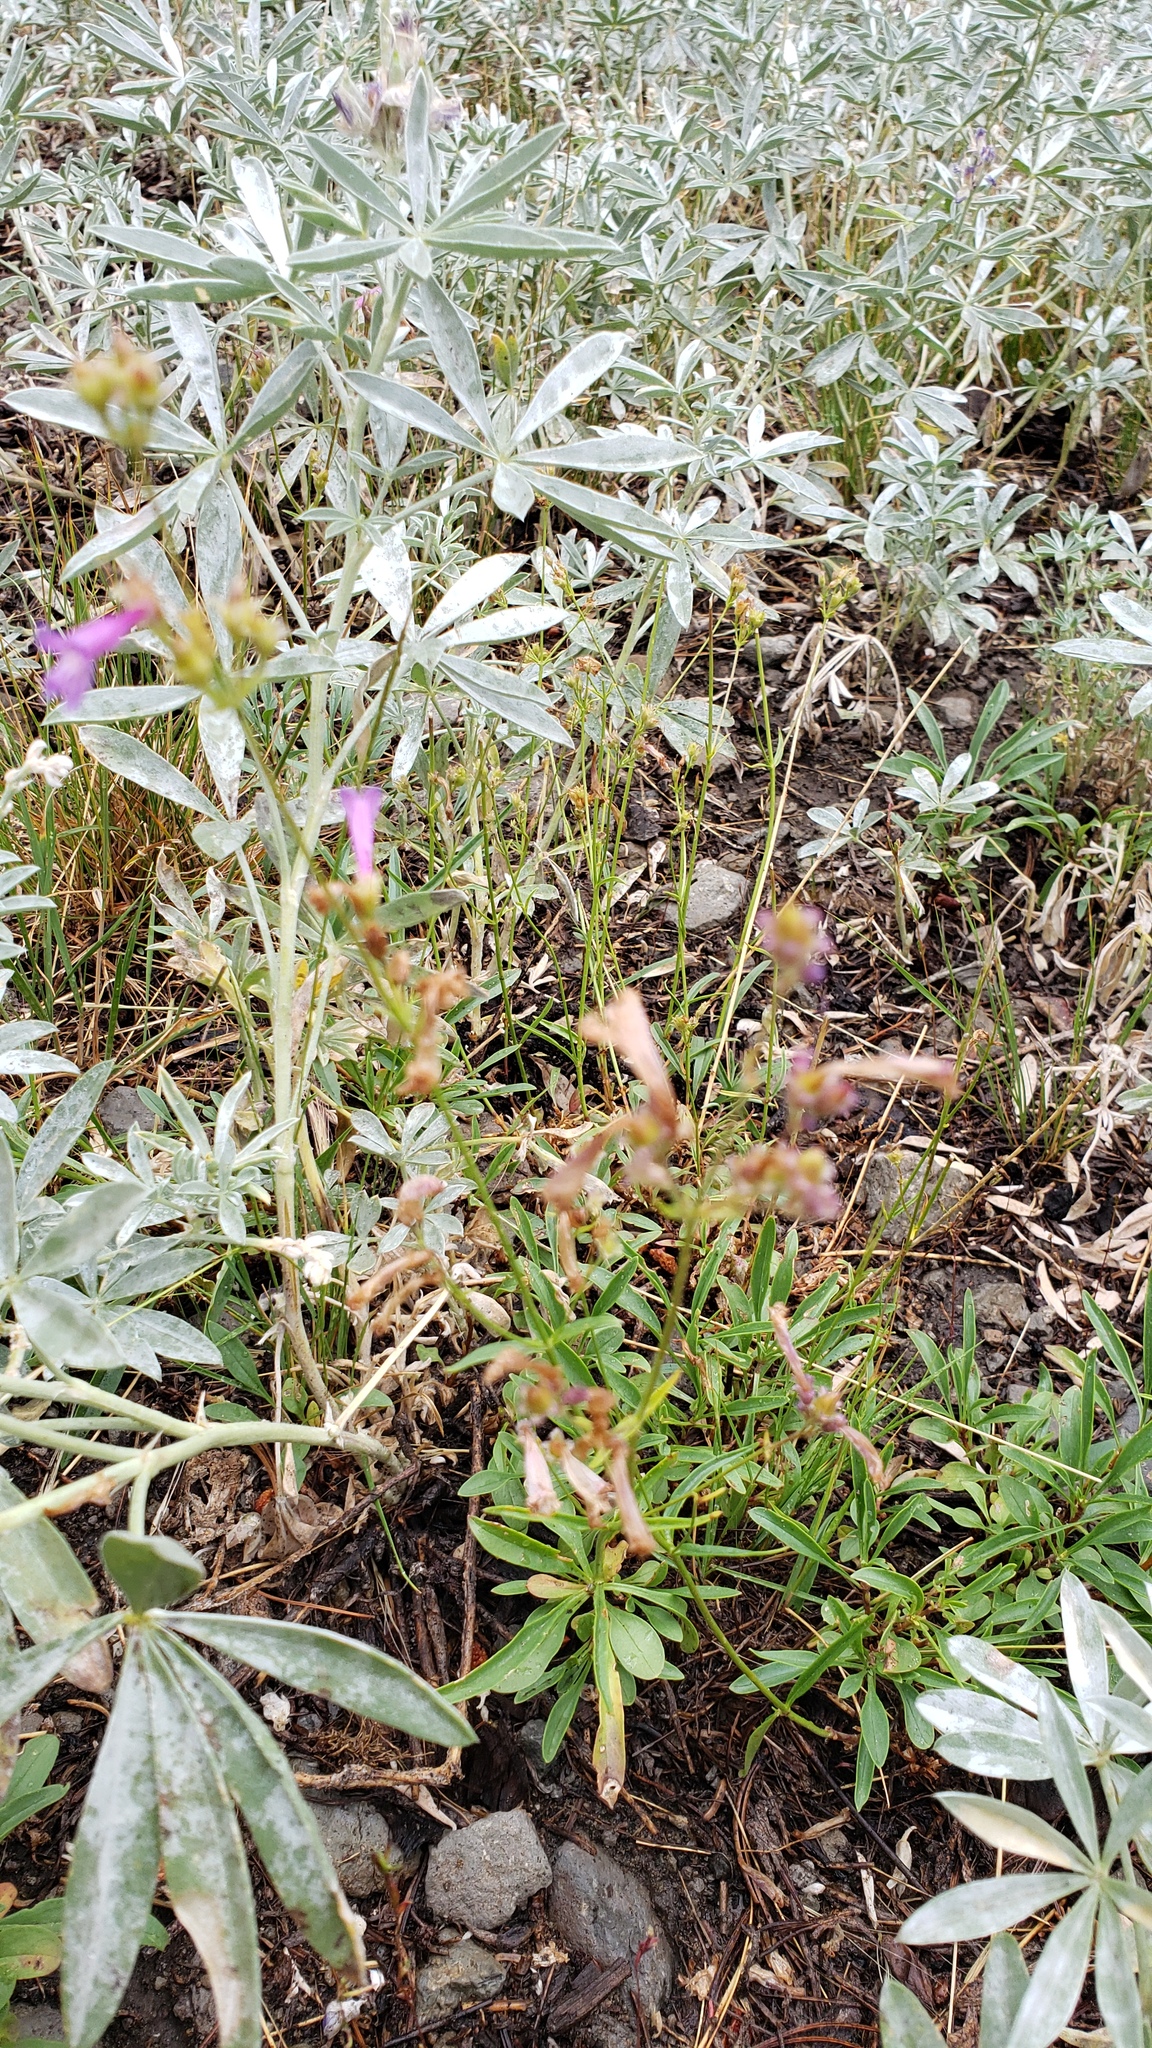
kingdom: Plantae
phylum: Tracheophyta
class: Magnoliopsida
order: Lamiales
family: Plantaginaceae
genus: Penstemon
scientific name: Penstemon gracilentus
